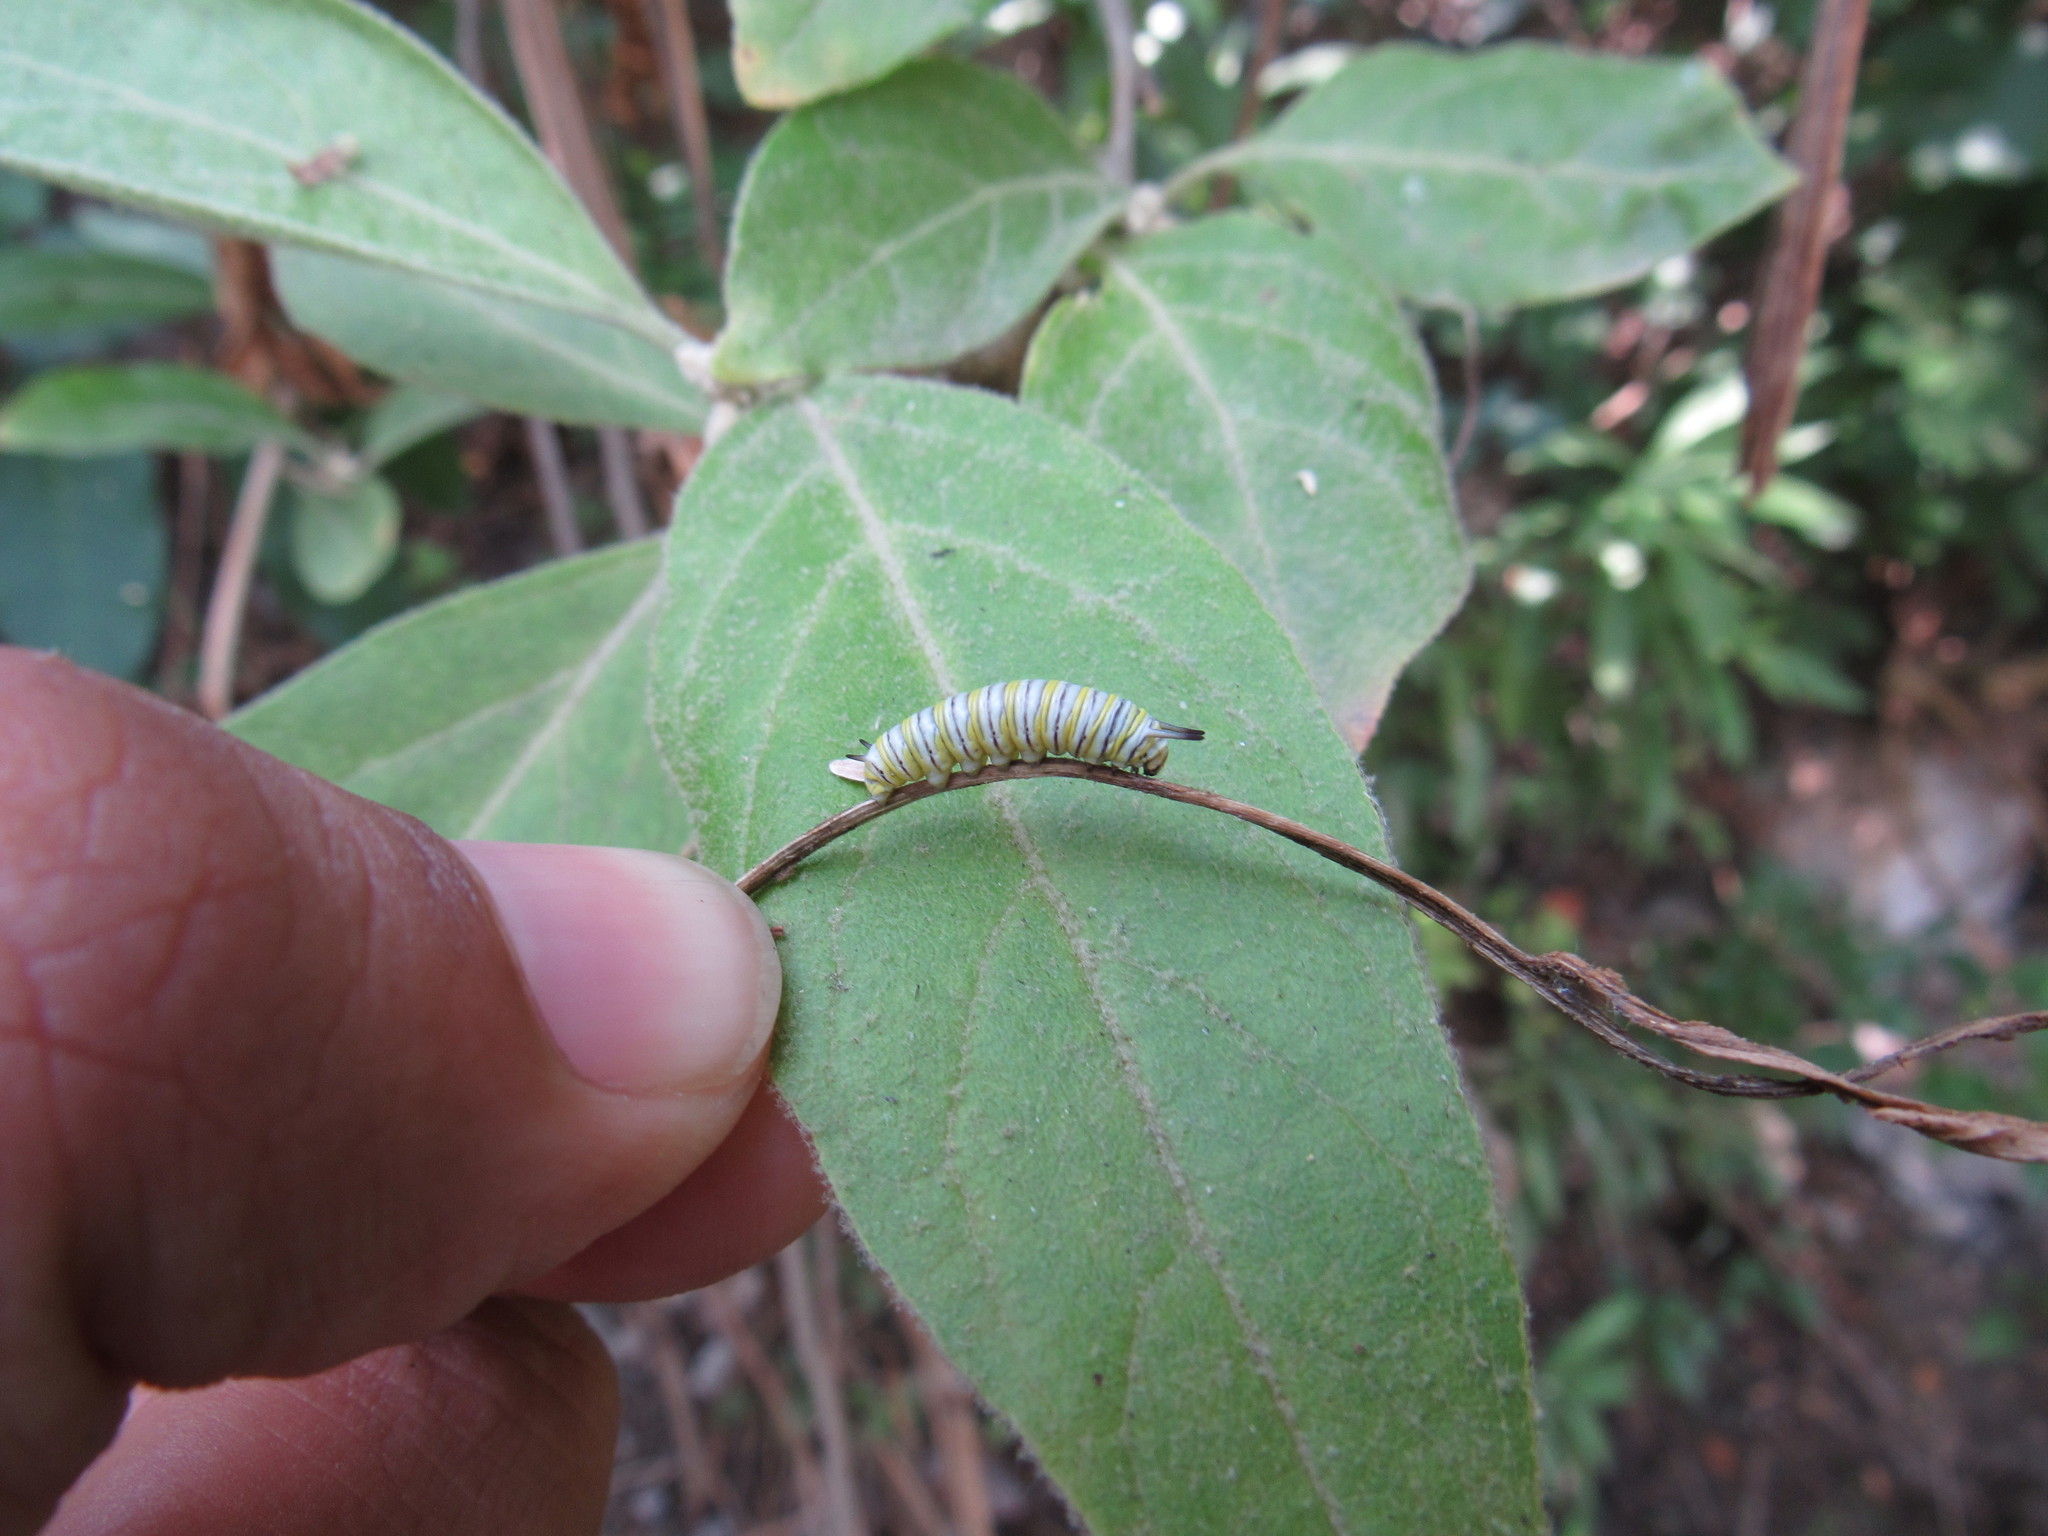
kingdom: Animalia
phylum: Arthropoda
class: Insecta
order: Lepidoptera
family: Nymphalidae
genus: Danaus
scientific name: Danaus plexippus
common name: Monarch
